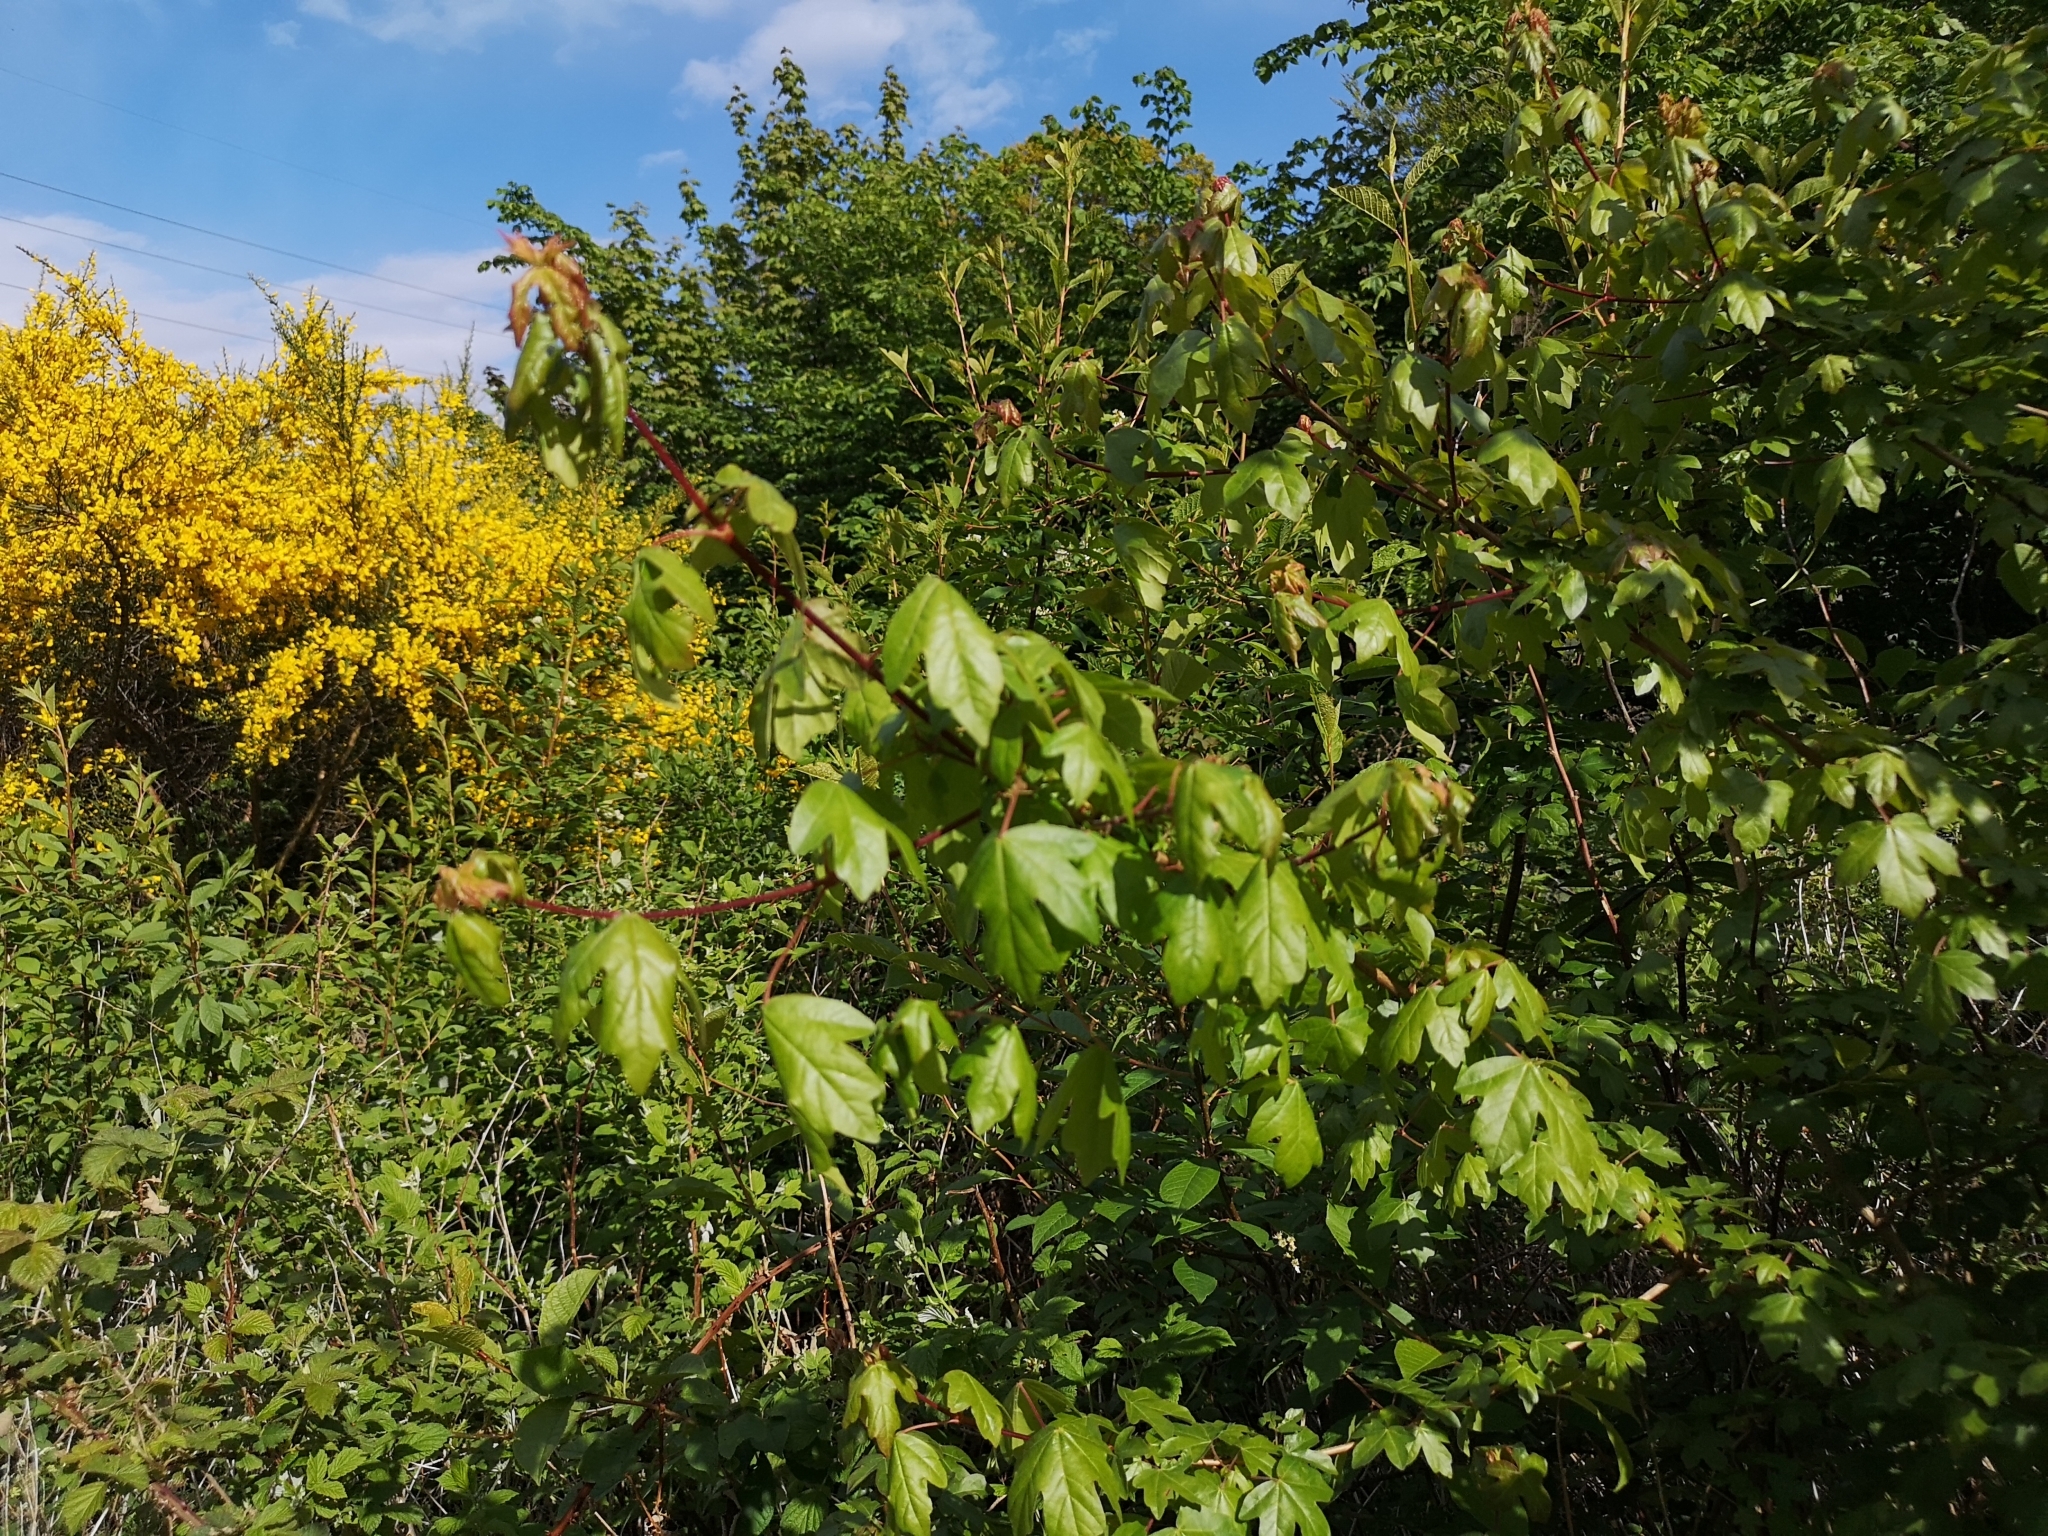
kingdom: Plantae
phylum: Tracheophyta
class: Magnoliopsida
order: Sapindales
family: Sapindaceae
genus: Acer
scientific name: Acer campestre
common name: Field maple
